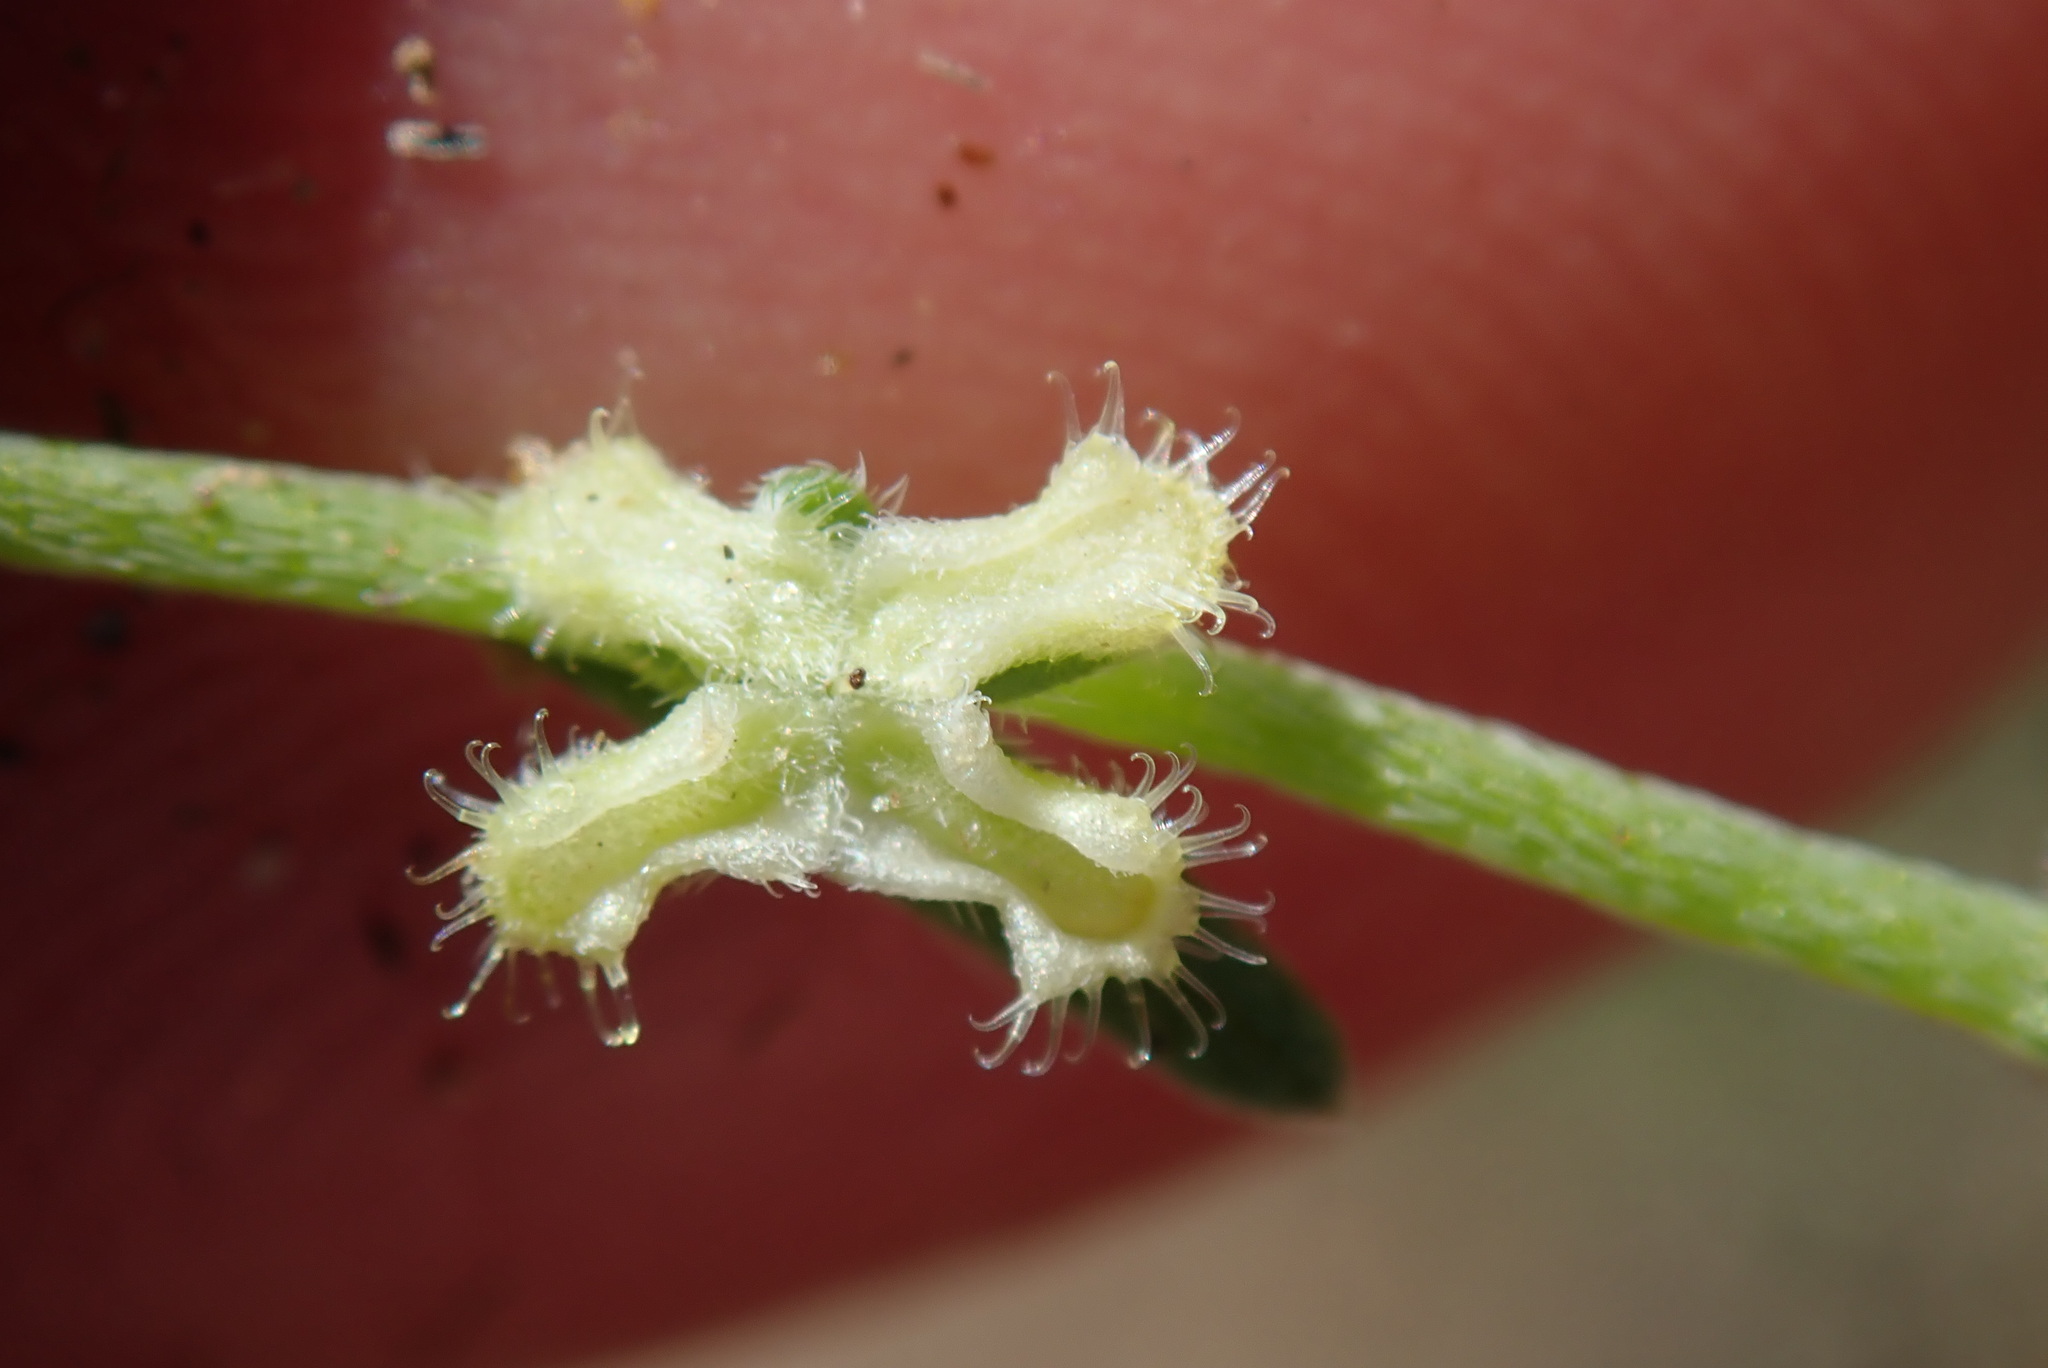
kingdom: Plantae
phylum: Tracheophyta
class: Magnoliopsida
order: Boraginales
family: Boraginaceae
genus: Pectocarya
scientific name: Pectocarya penicillata
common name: Short-leaved combseed
